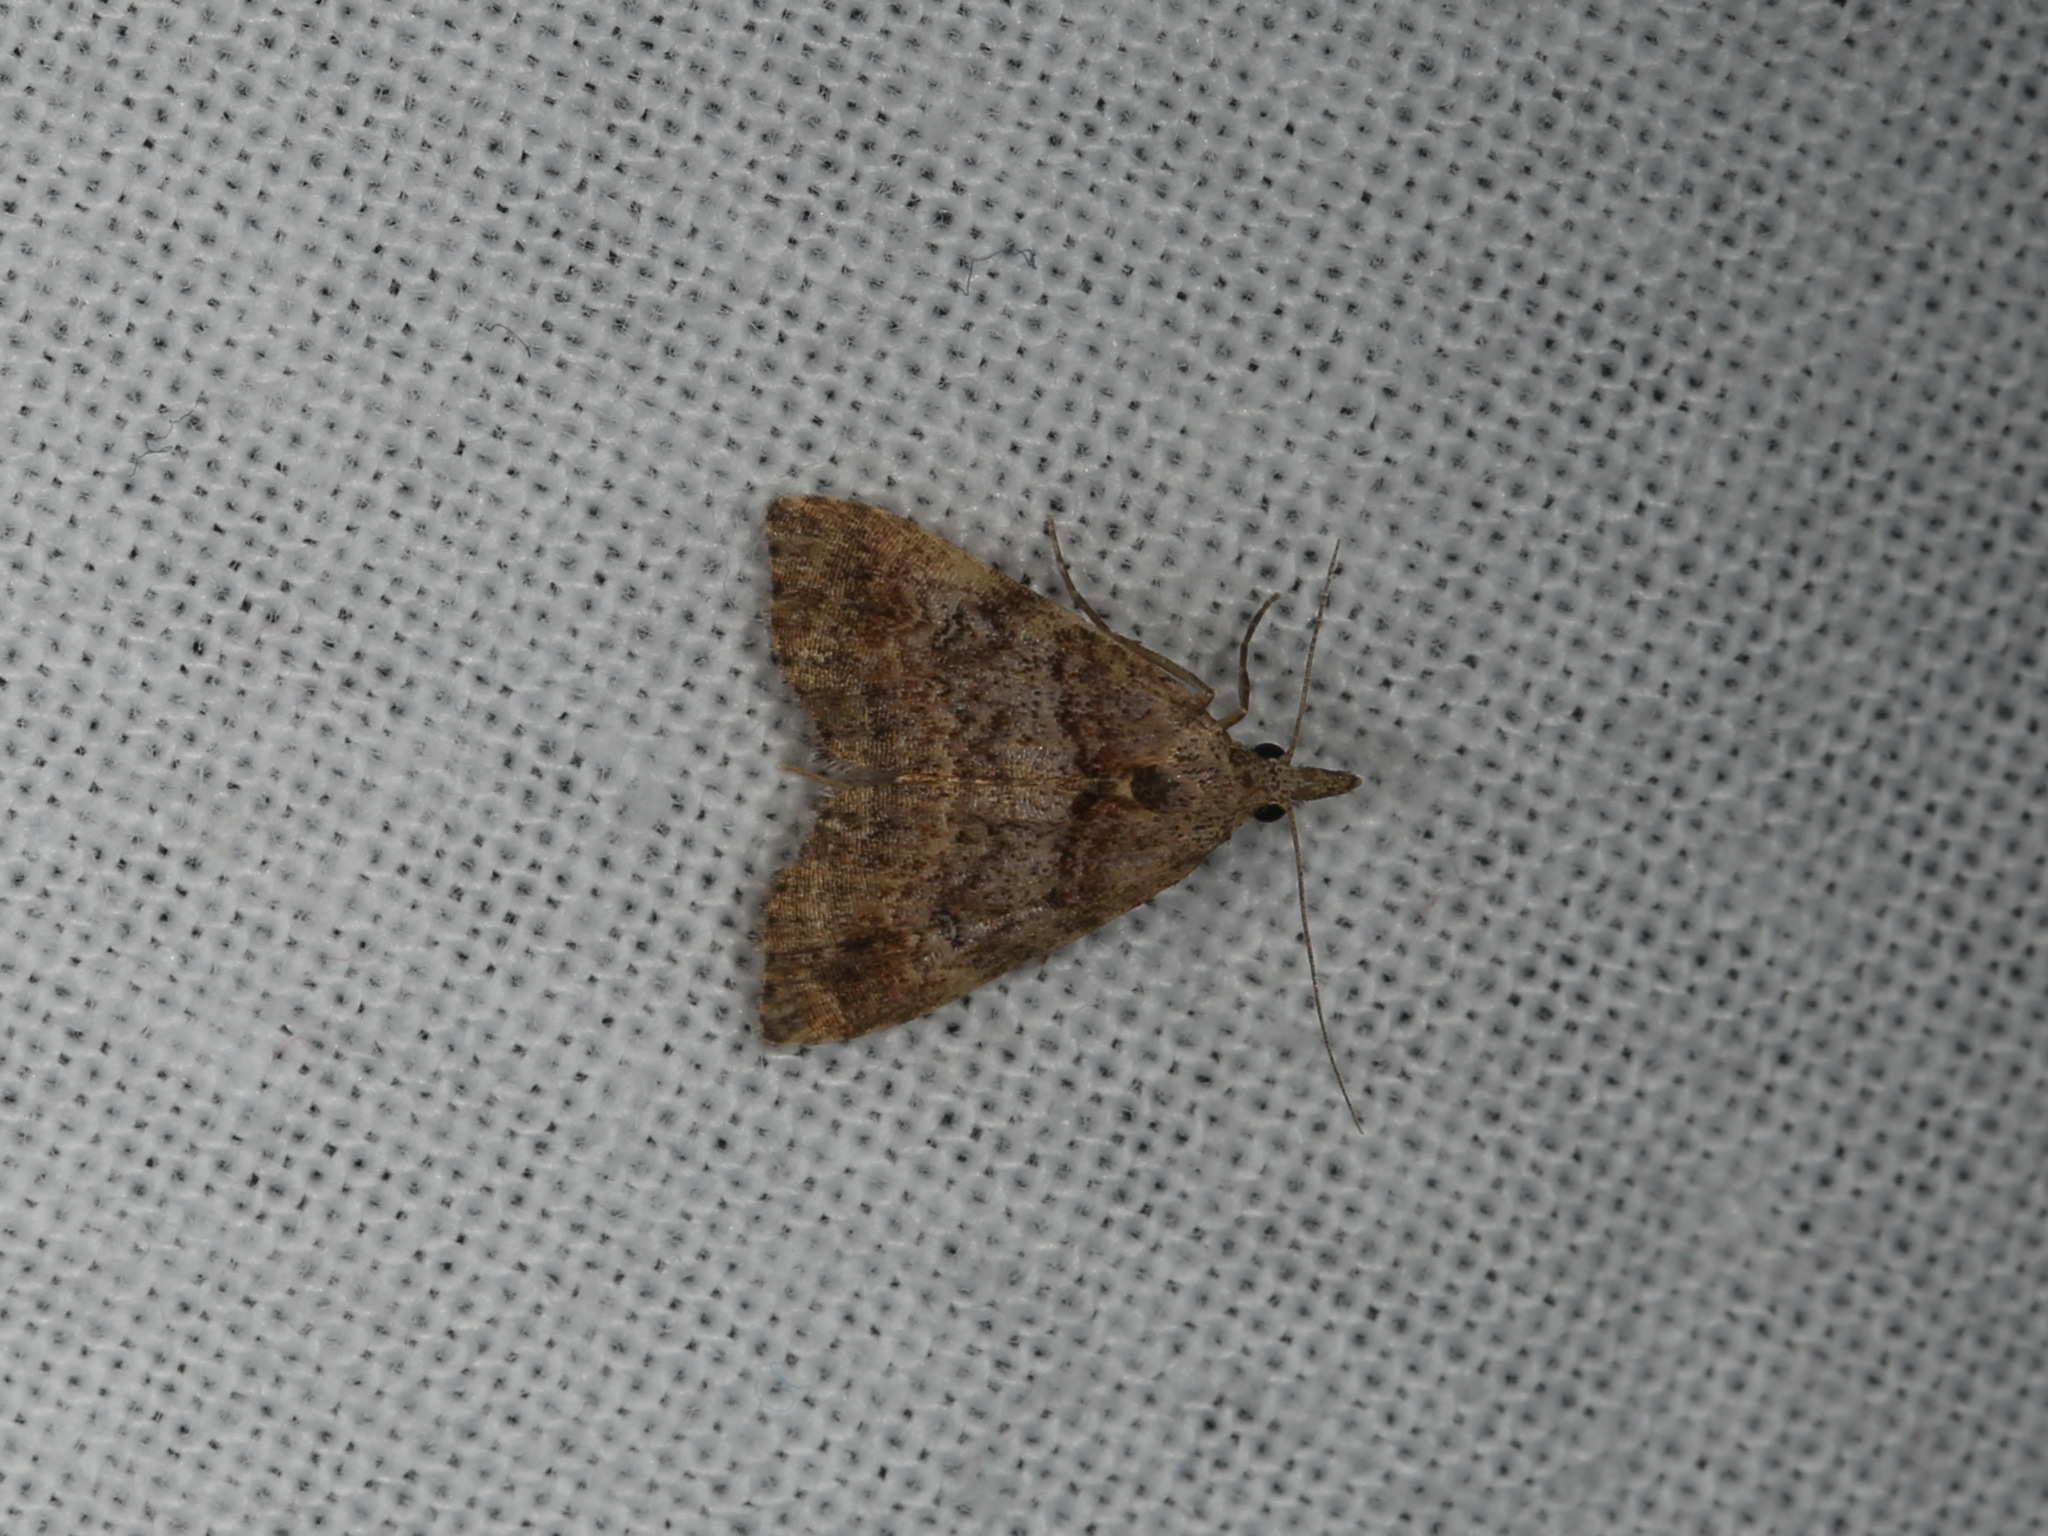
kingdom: Animalia
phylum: Arthropoda
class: Insecta
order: Lepidoptera
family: Erebidae
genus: Alapadna
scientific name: Alapadna pauropis
